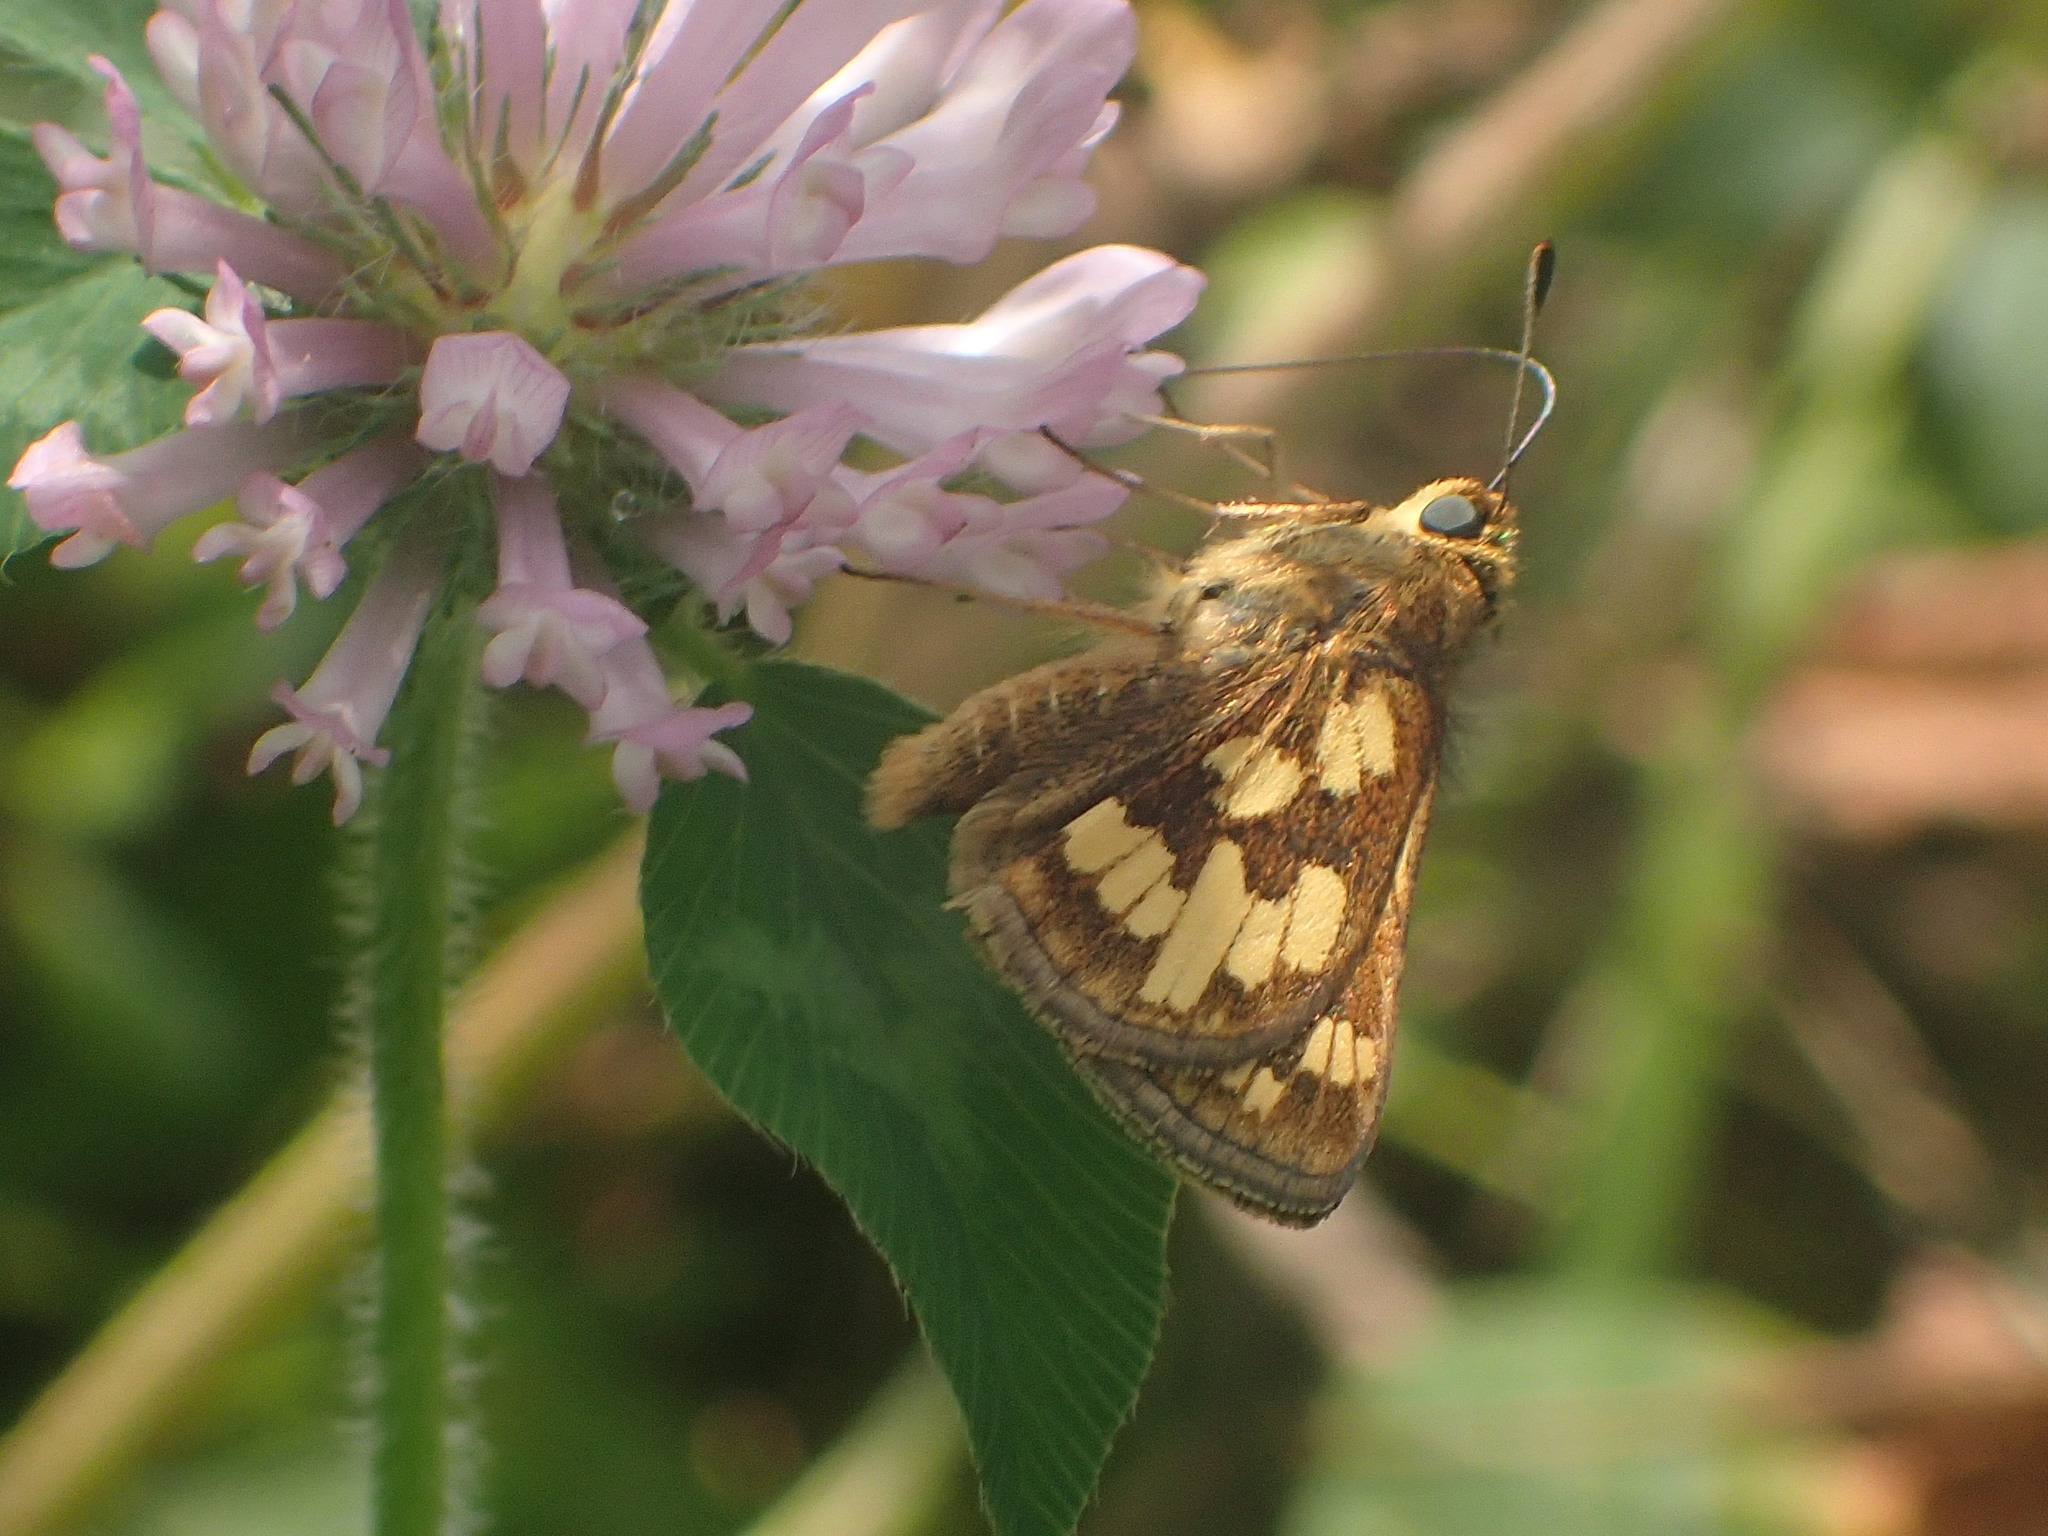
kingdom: Animalia
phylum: Arthropoda
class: Insecta
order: Lepidoptera
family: Hesperiidae
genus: Polites
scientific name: Polites coras
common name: Peck's skipper
